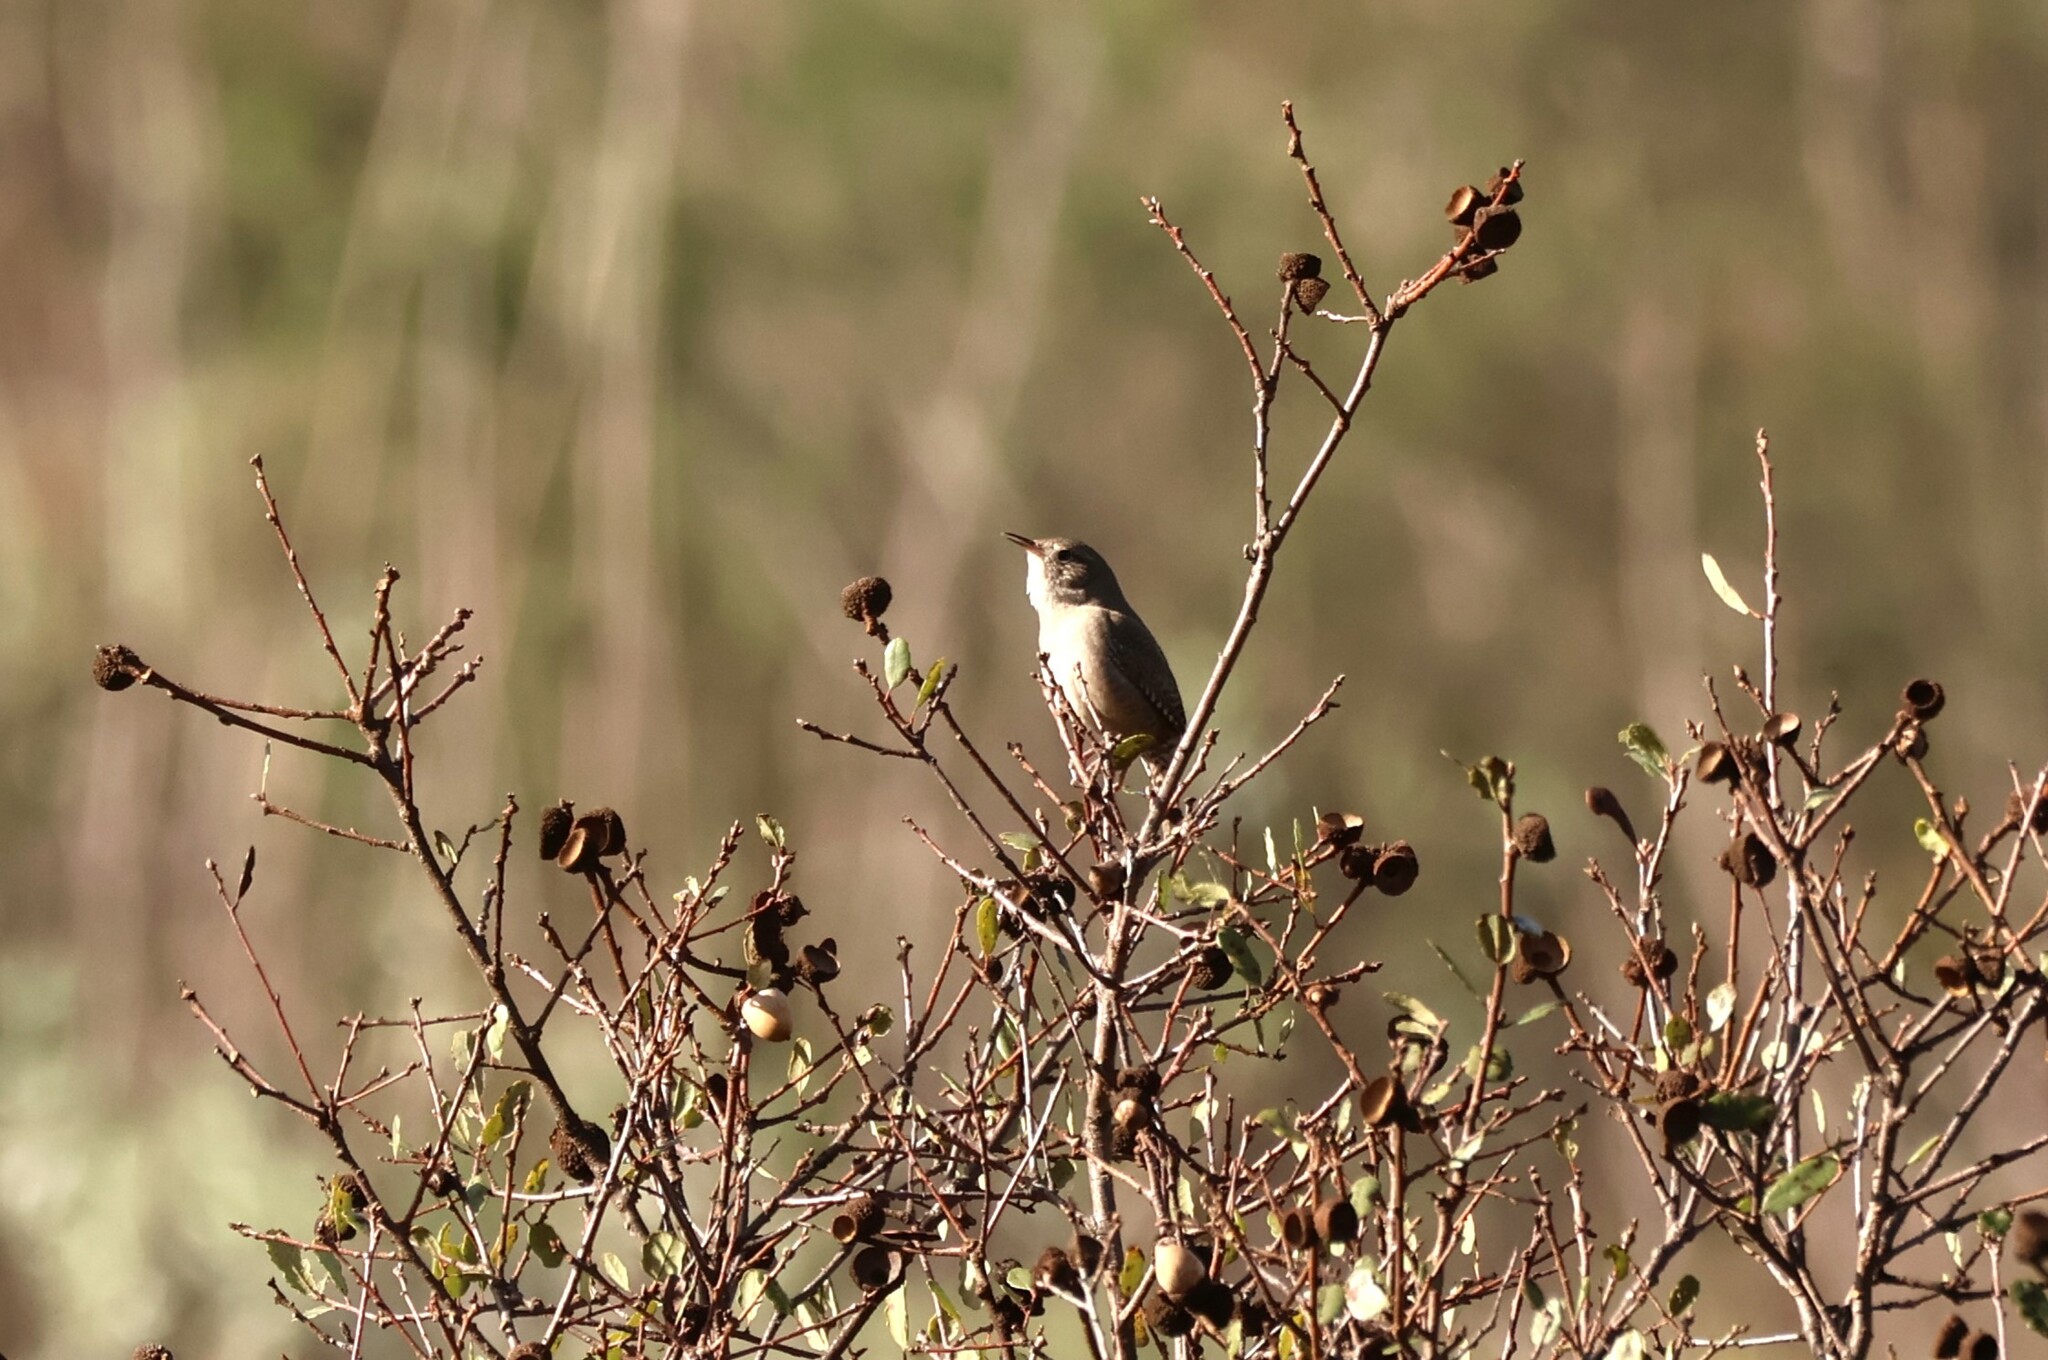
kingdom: Animalia
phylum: Chordata
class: Aves
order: Passeriformes
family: Troglodytidae
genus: Troglodytes
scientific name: Troglodytes aedon
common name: House wren
